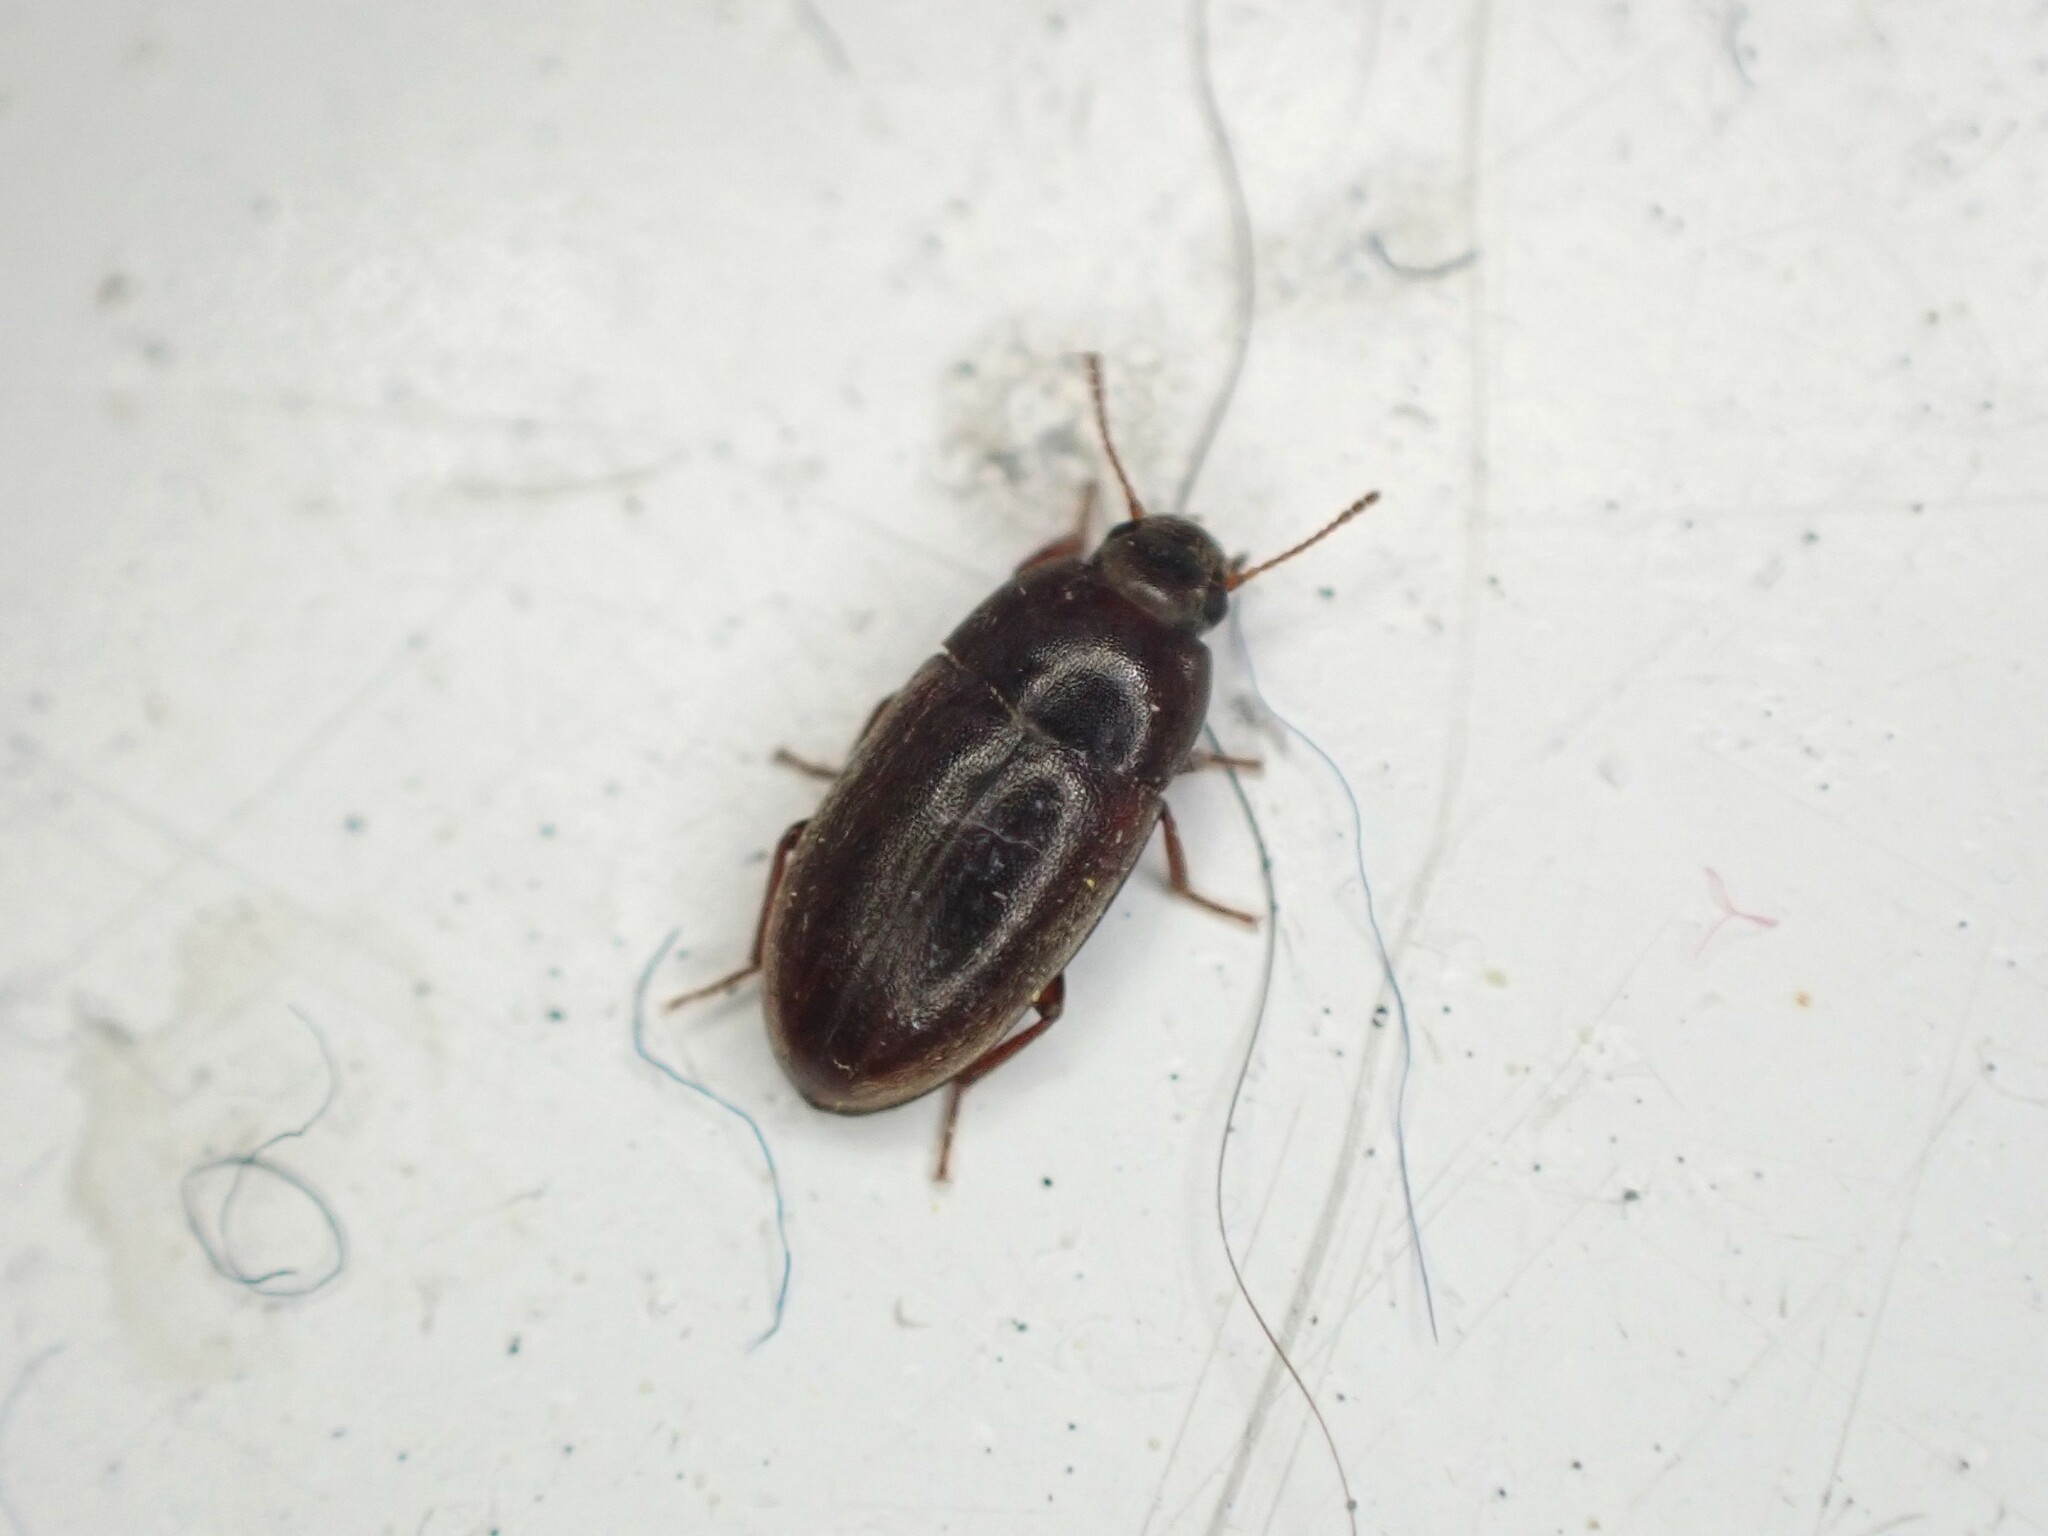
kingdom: Animalia
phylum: Arthropoda
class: Insecta
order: Coleoptera
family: Archeocrypticidae
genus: Enneboeus
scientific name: Enneboeus
